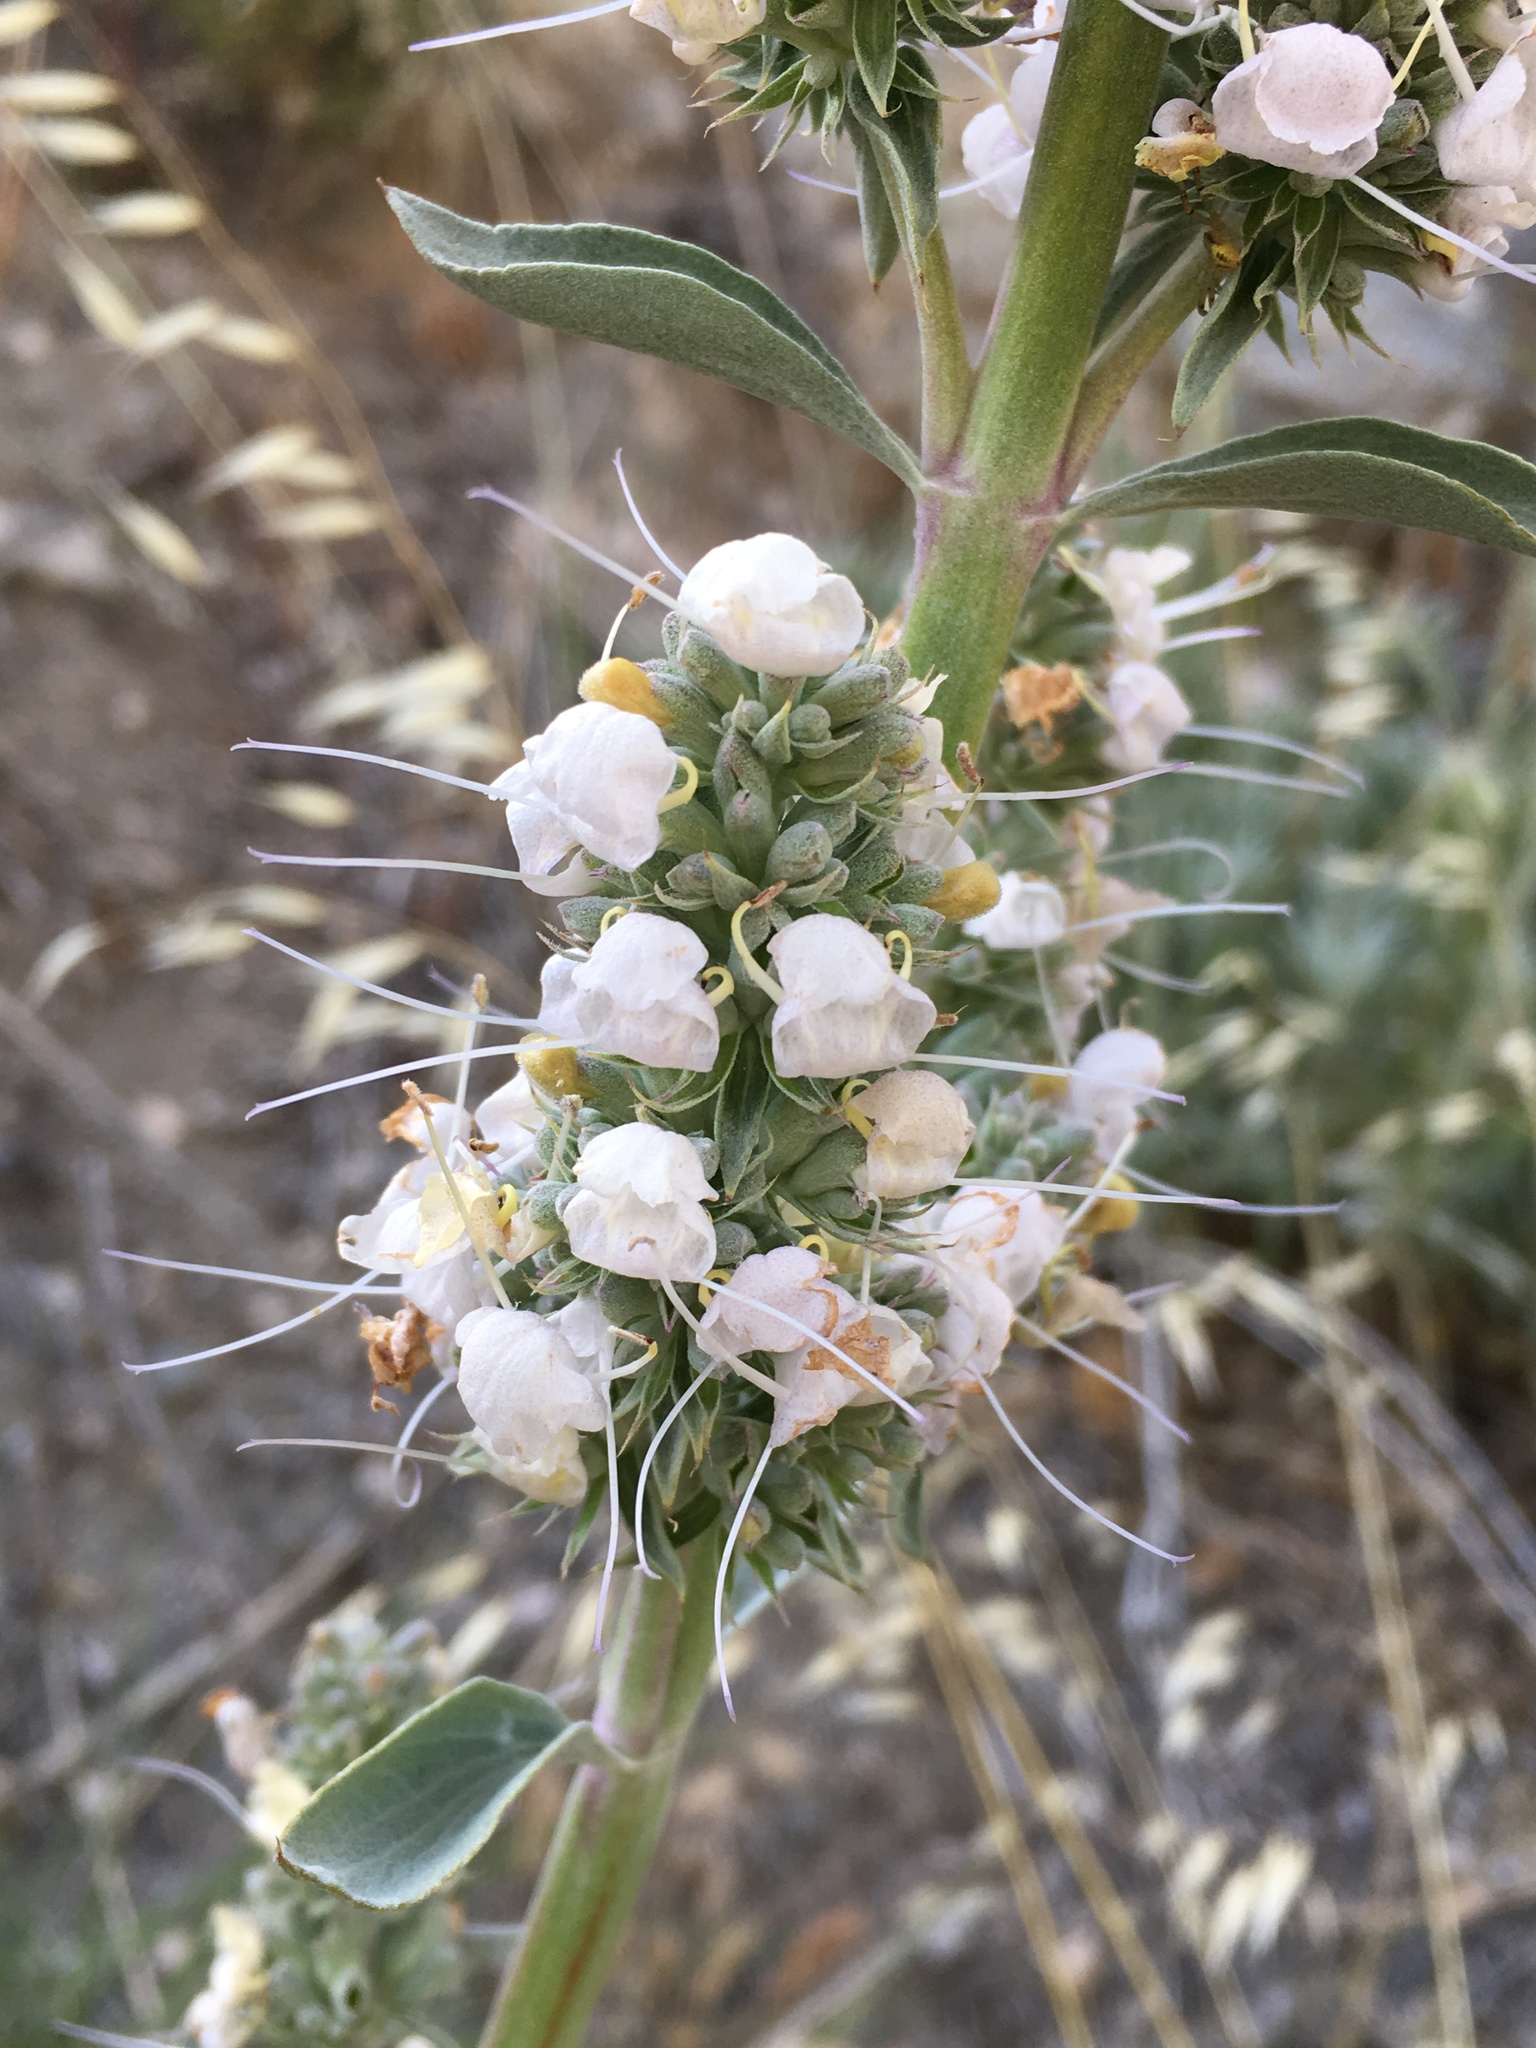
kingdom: Plantae
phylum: Tracheophyta
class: Magnoliopsida
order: Lamiales
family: Lamiaceae
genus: Salvia
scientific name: Salvia apiana
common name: White sage
